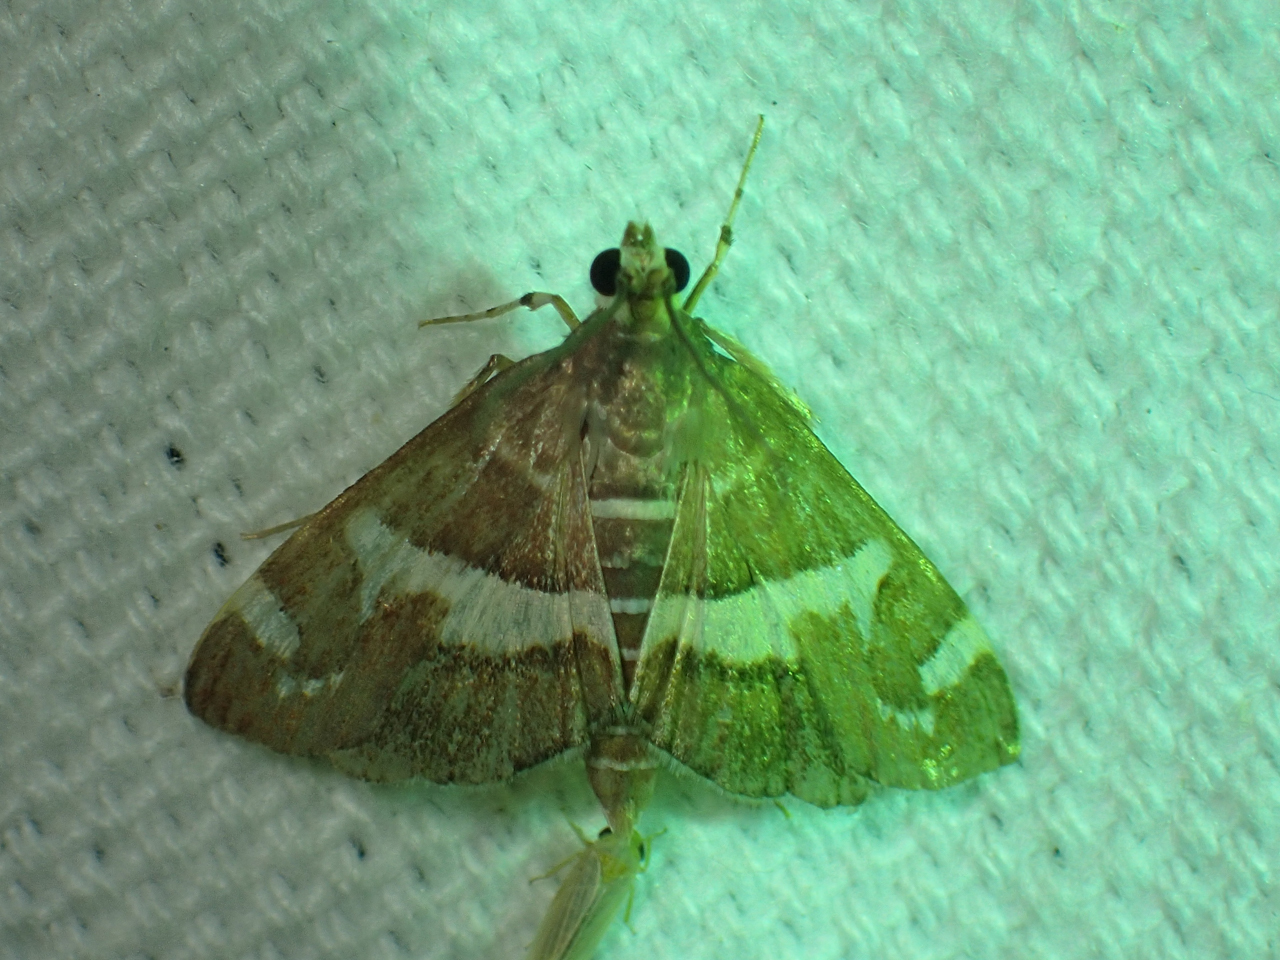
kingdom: Animalia
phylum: Arthropoda
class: Insecta
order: Lepidoptera
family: Crambidae
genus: Spoladea
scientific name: Spoladea recurvalis
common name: Beet webworm moth
